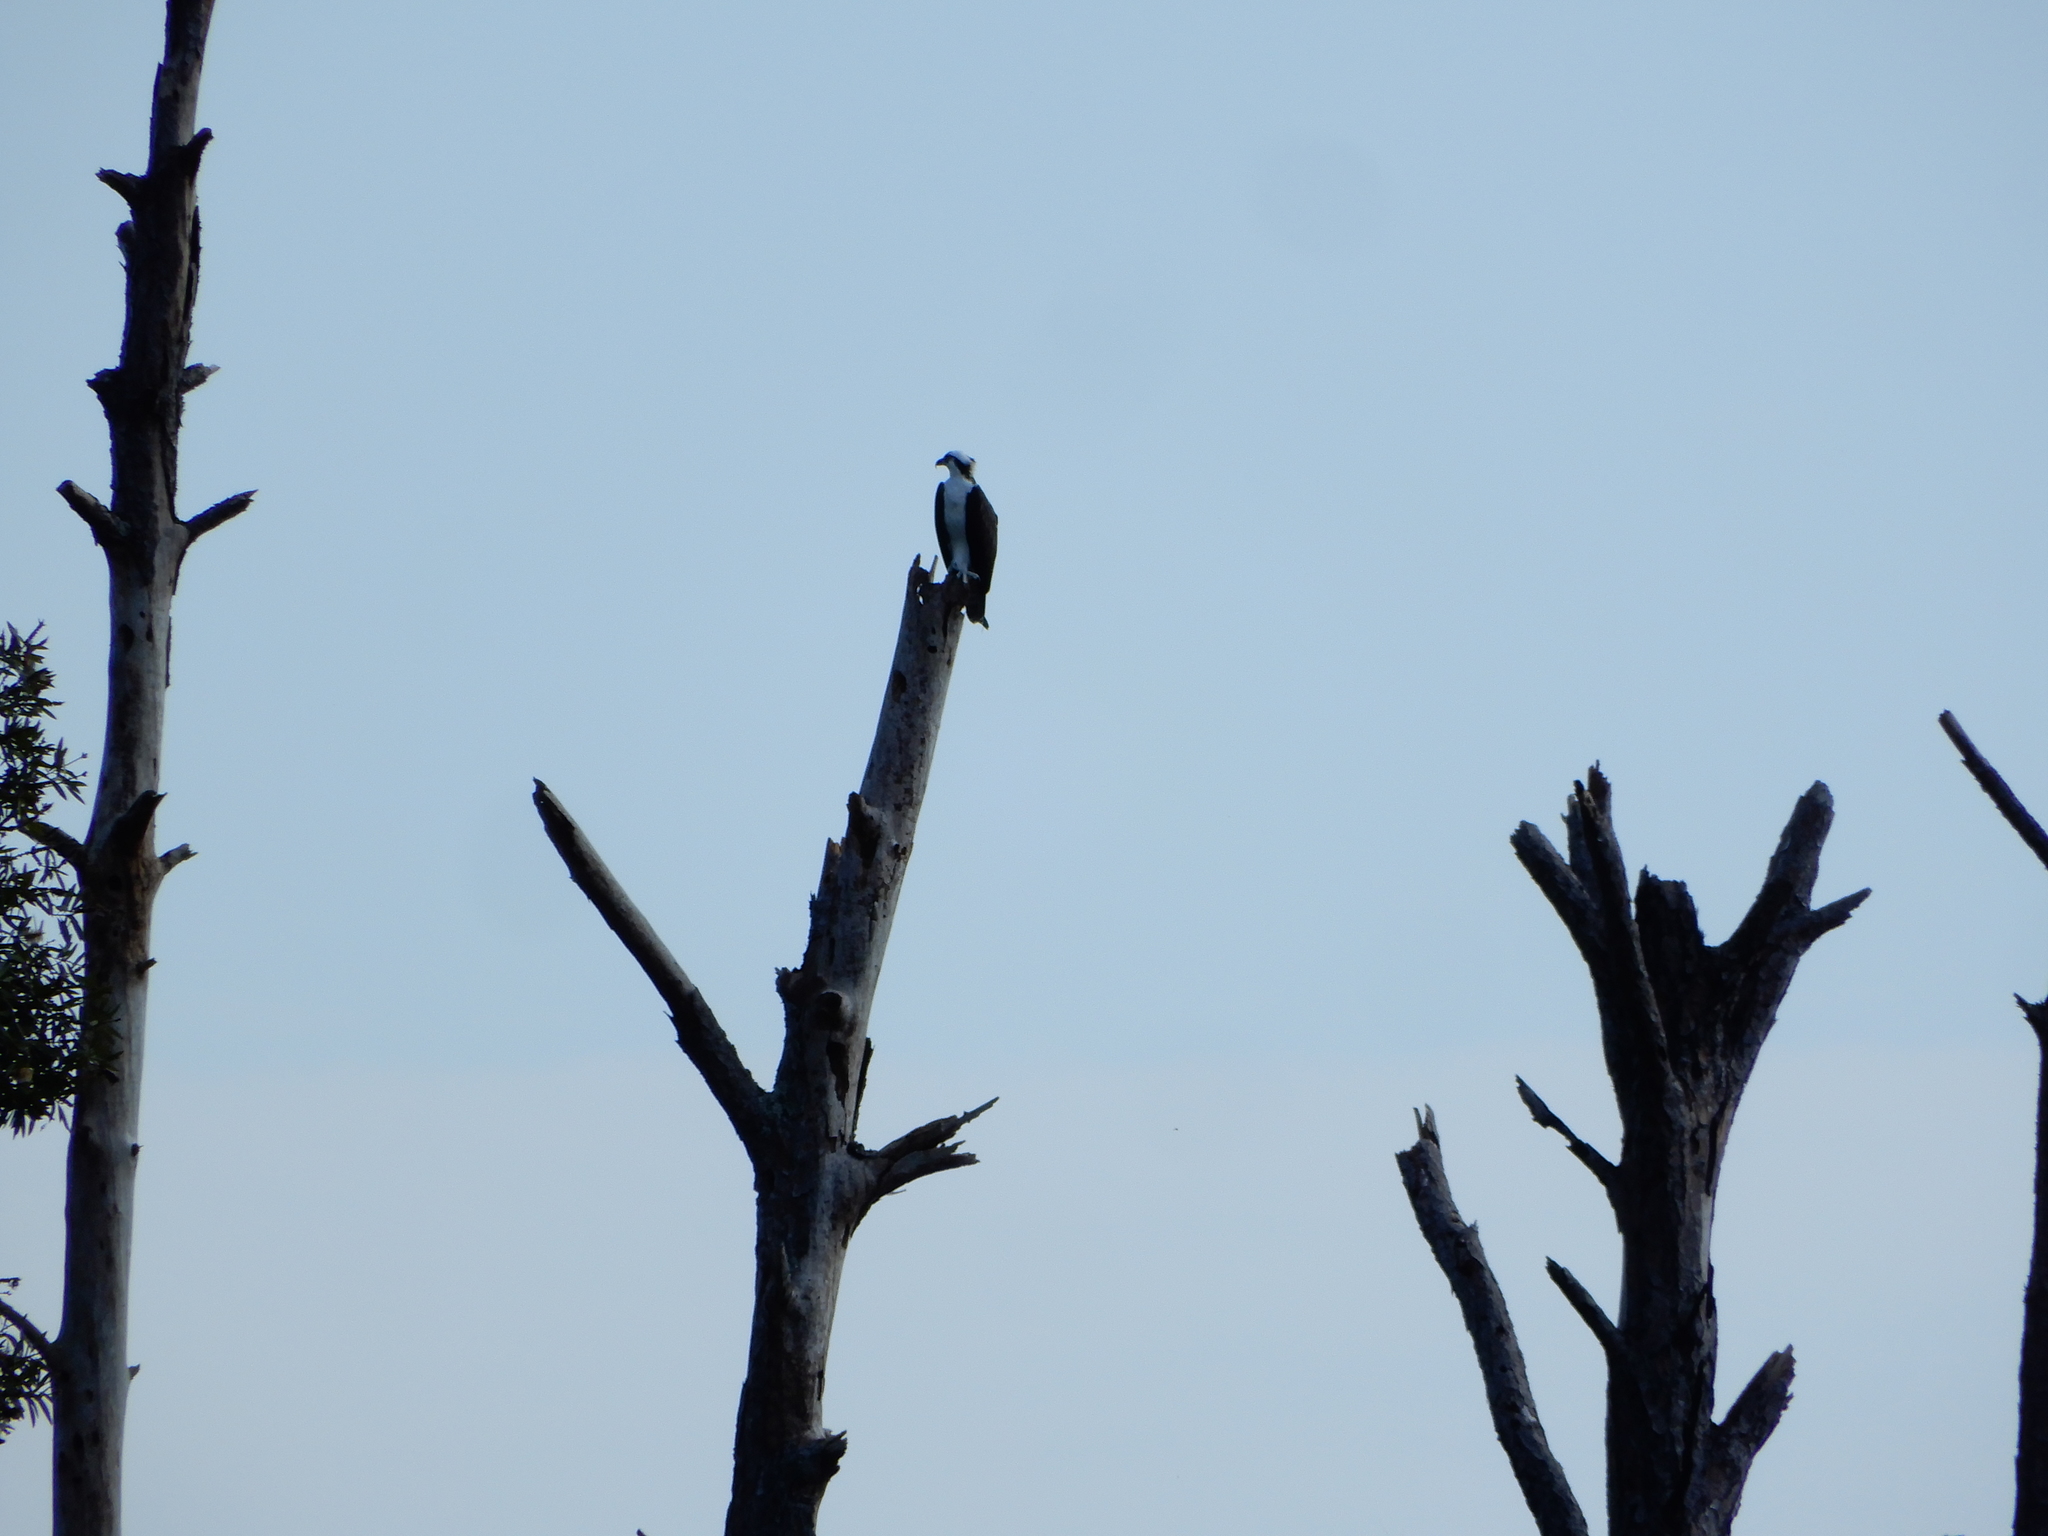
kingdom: Animalia
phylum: Chordata
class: Aves
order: Accipitriformes
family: Pandionidae
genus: Pandion
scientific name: Pandion haliaetus
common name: Osprey
